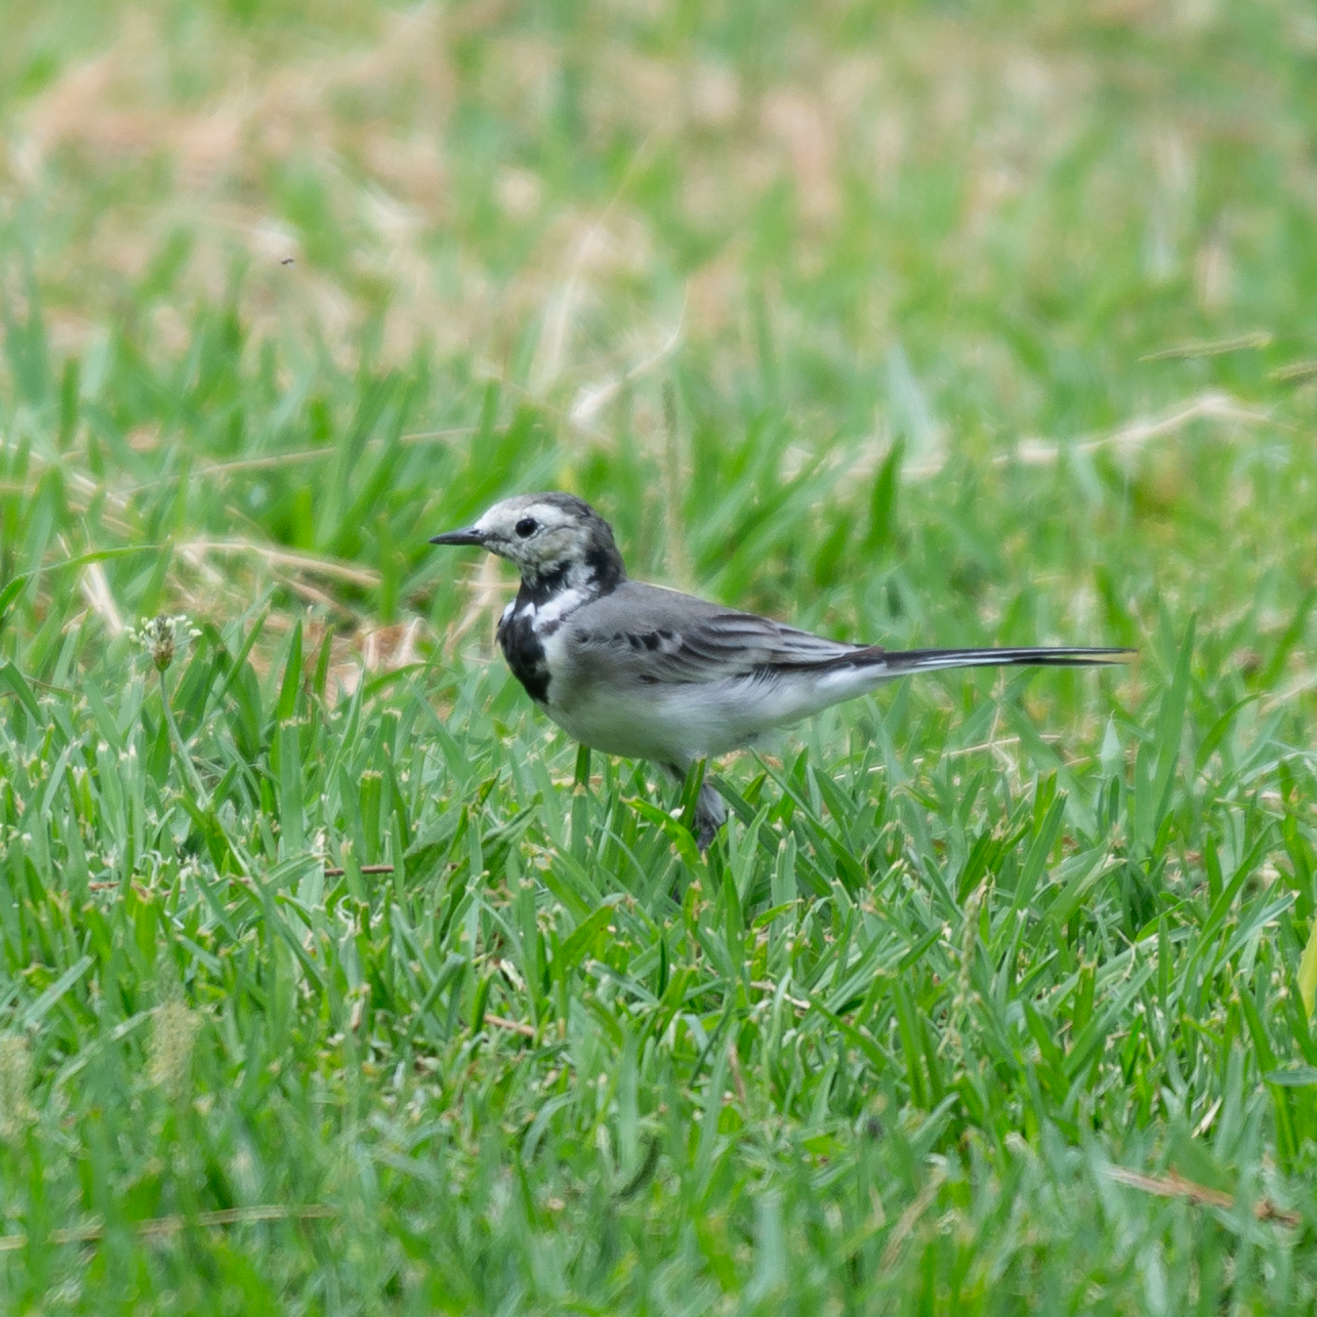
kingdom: Animalia
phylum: Chordata
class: Aves
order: Passeriformes
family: Motacillidae
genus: Motacilla
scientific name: Motacilla alba
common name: White wagtail
